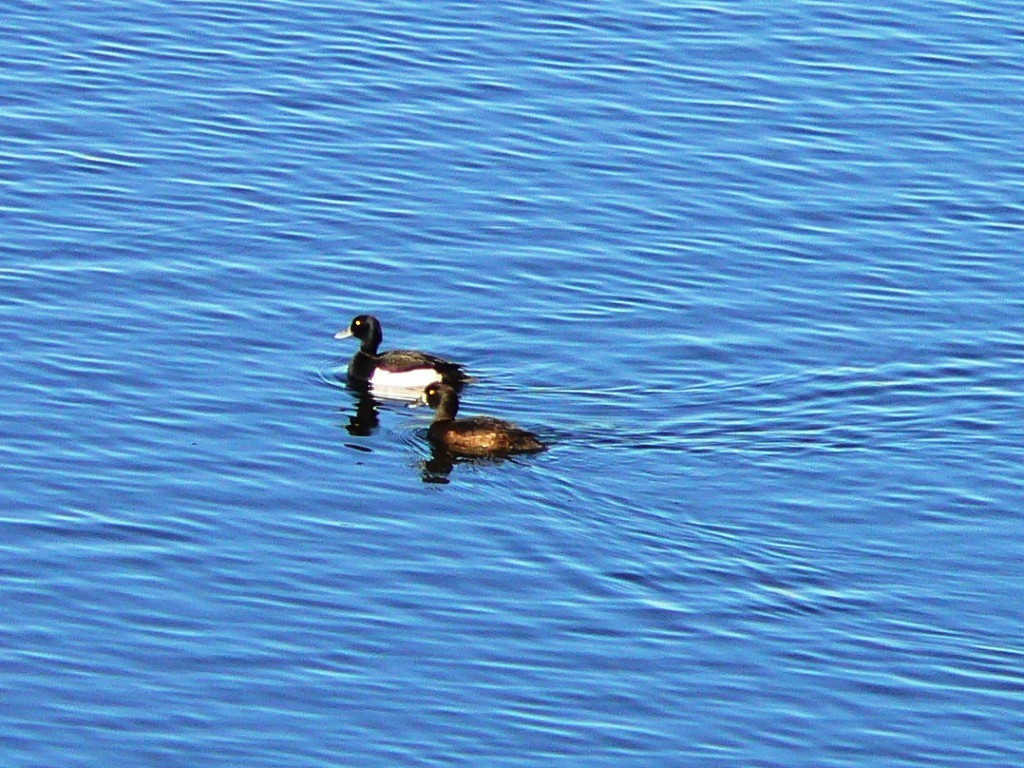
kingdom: Animalia
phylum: Chordata
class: Aves
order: Anseriformes
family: Anatidae
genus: Aythya
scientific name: Aythya fuligula
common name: Tufted duck
